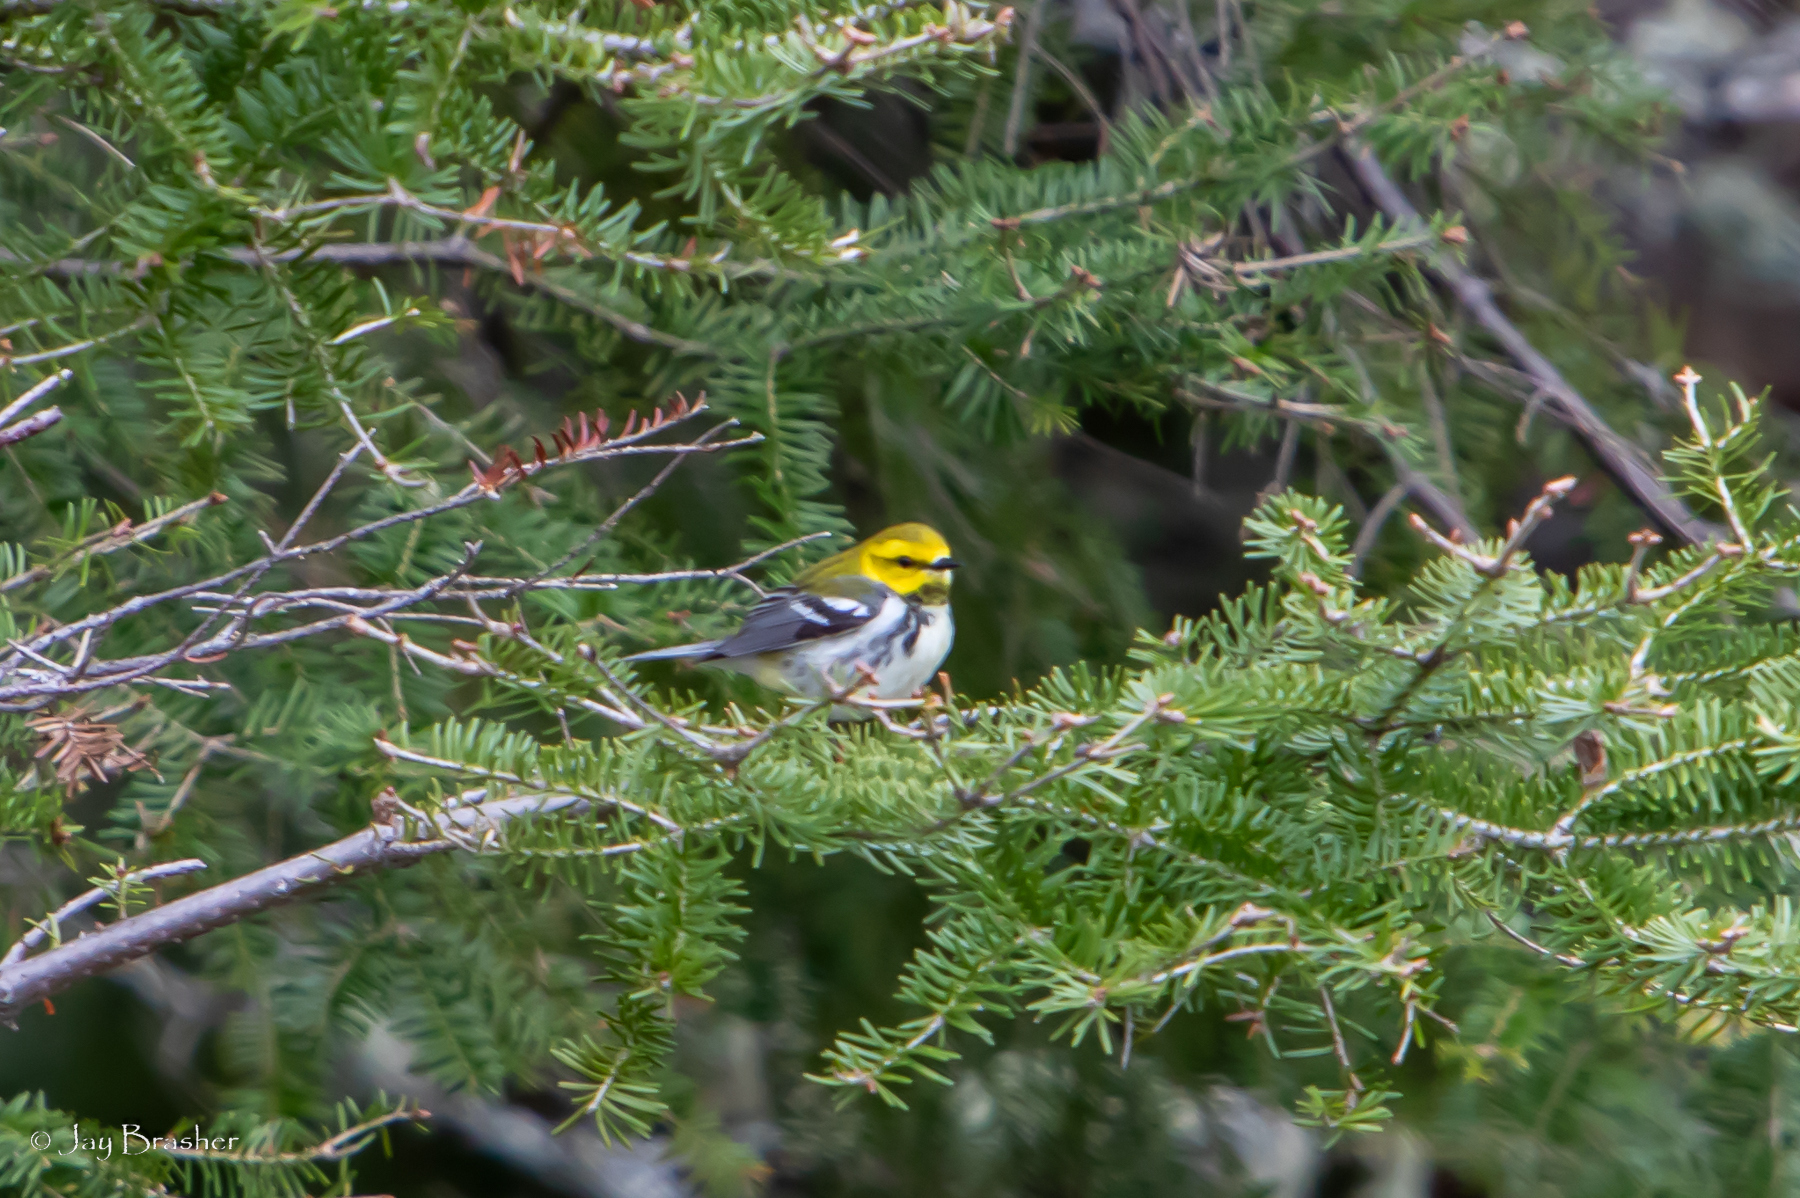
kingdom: Animalia
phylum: Chordata
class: Aves
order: Passeriformes
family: Parulidae
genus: Setophaga
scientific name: Setophaga virens
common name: Black-throated green warbler
